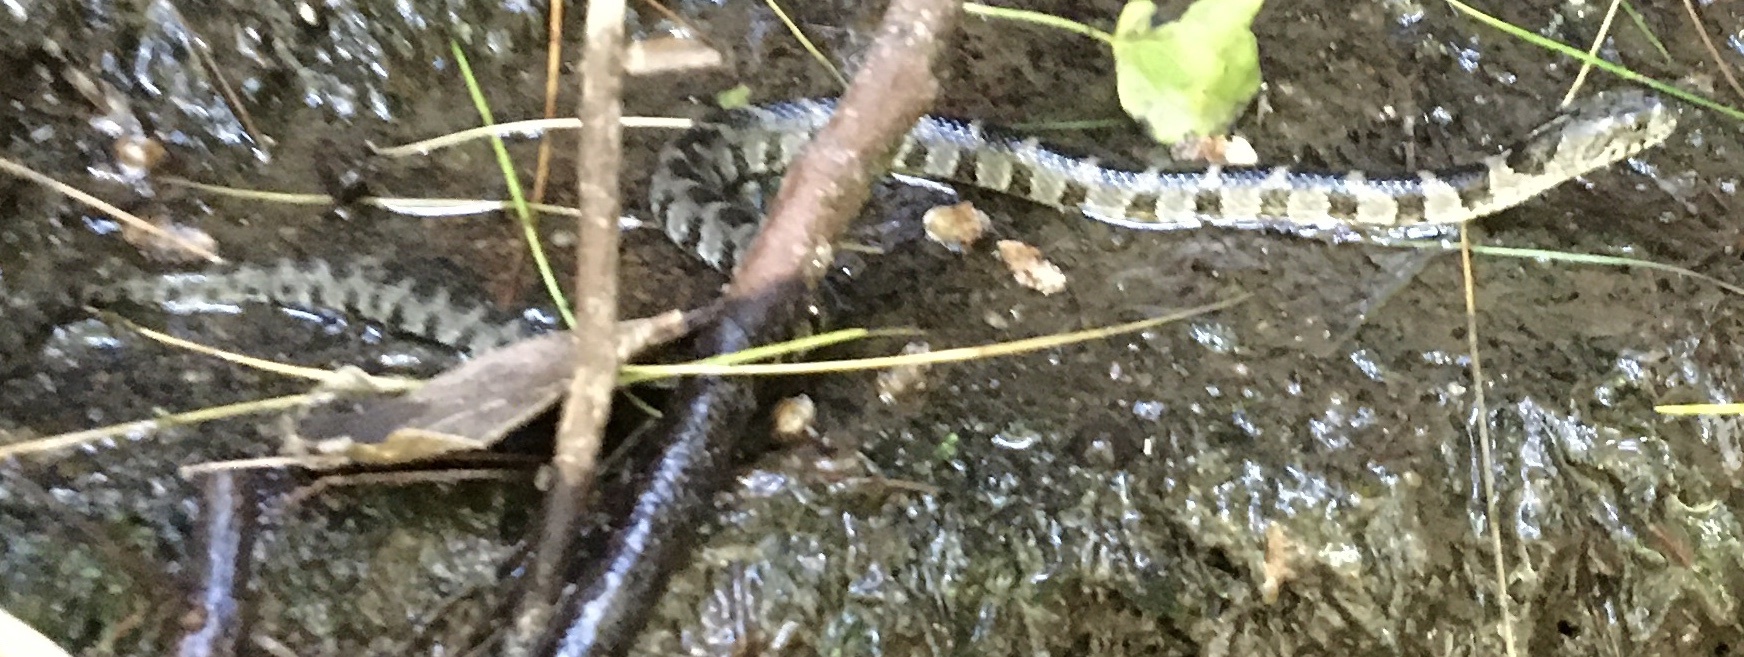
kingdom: Animalia
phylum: Chordata
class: Squamata
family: Colubridae
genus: Nerodia
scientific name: Nerodia sipedon
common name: Northern water snake
